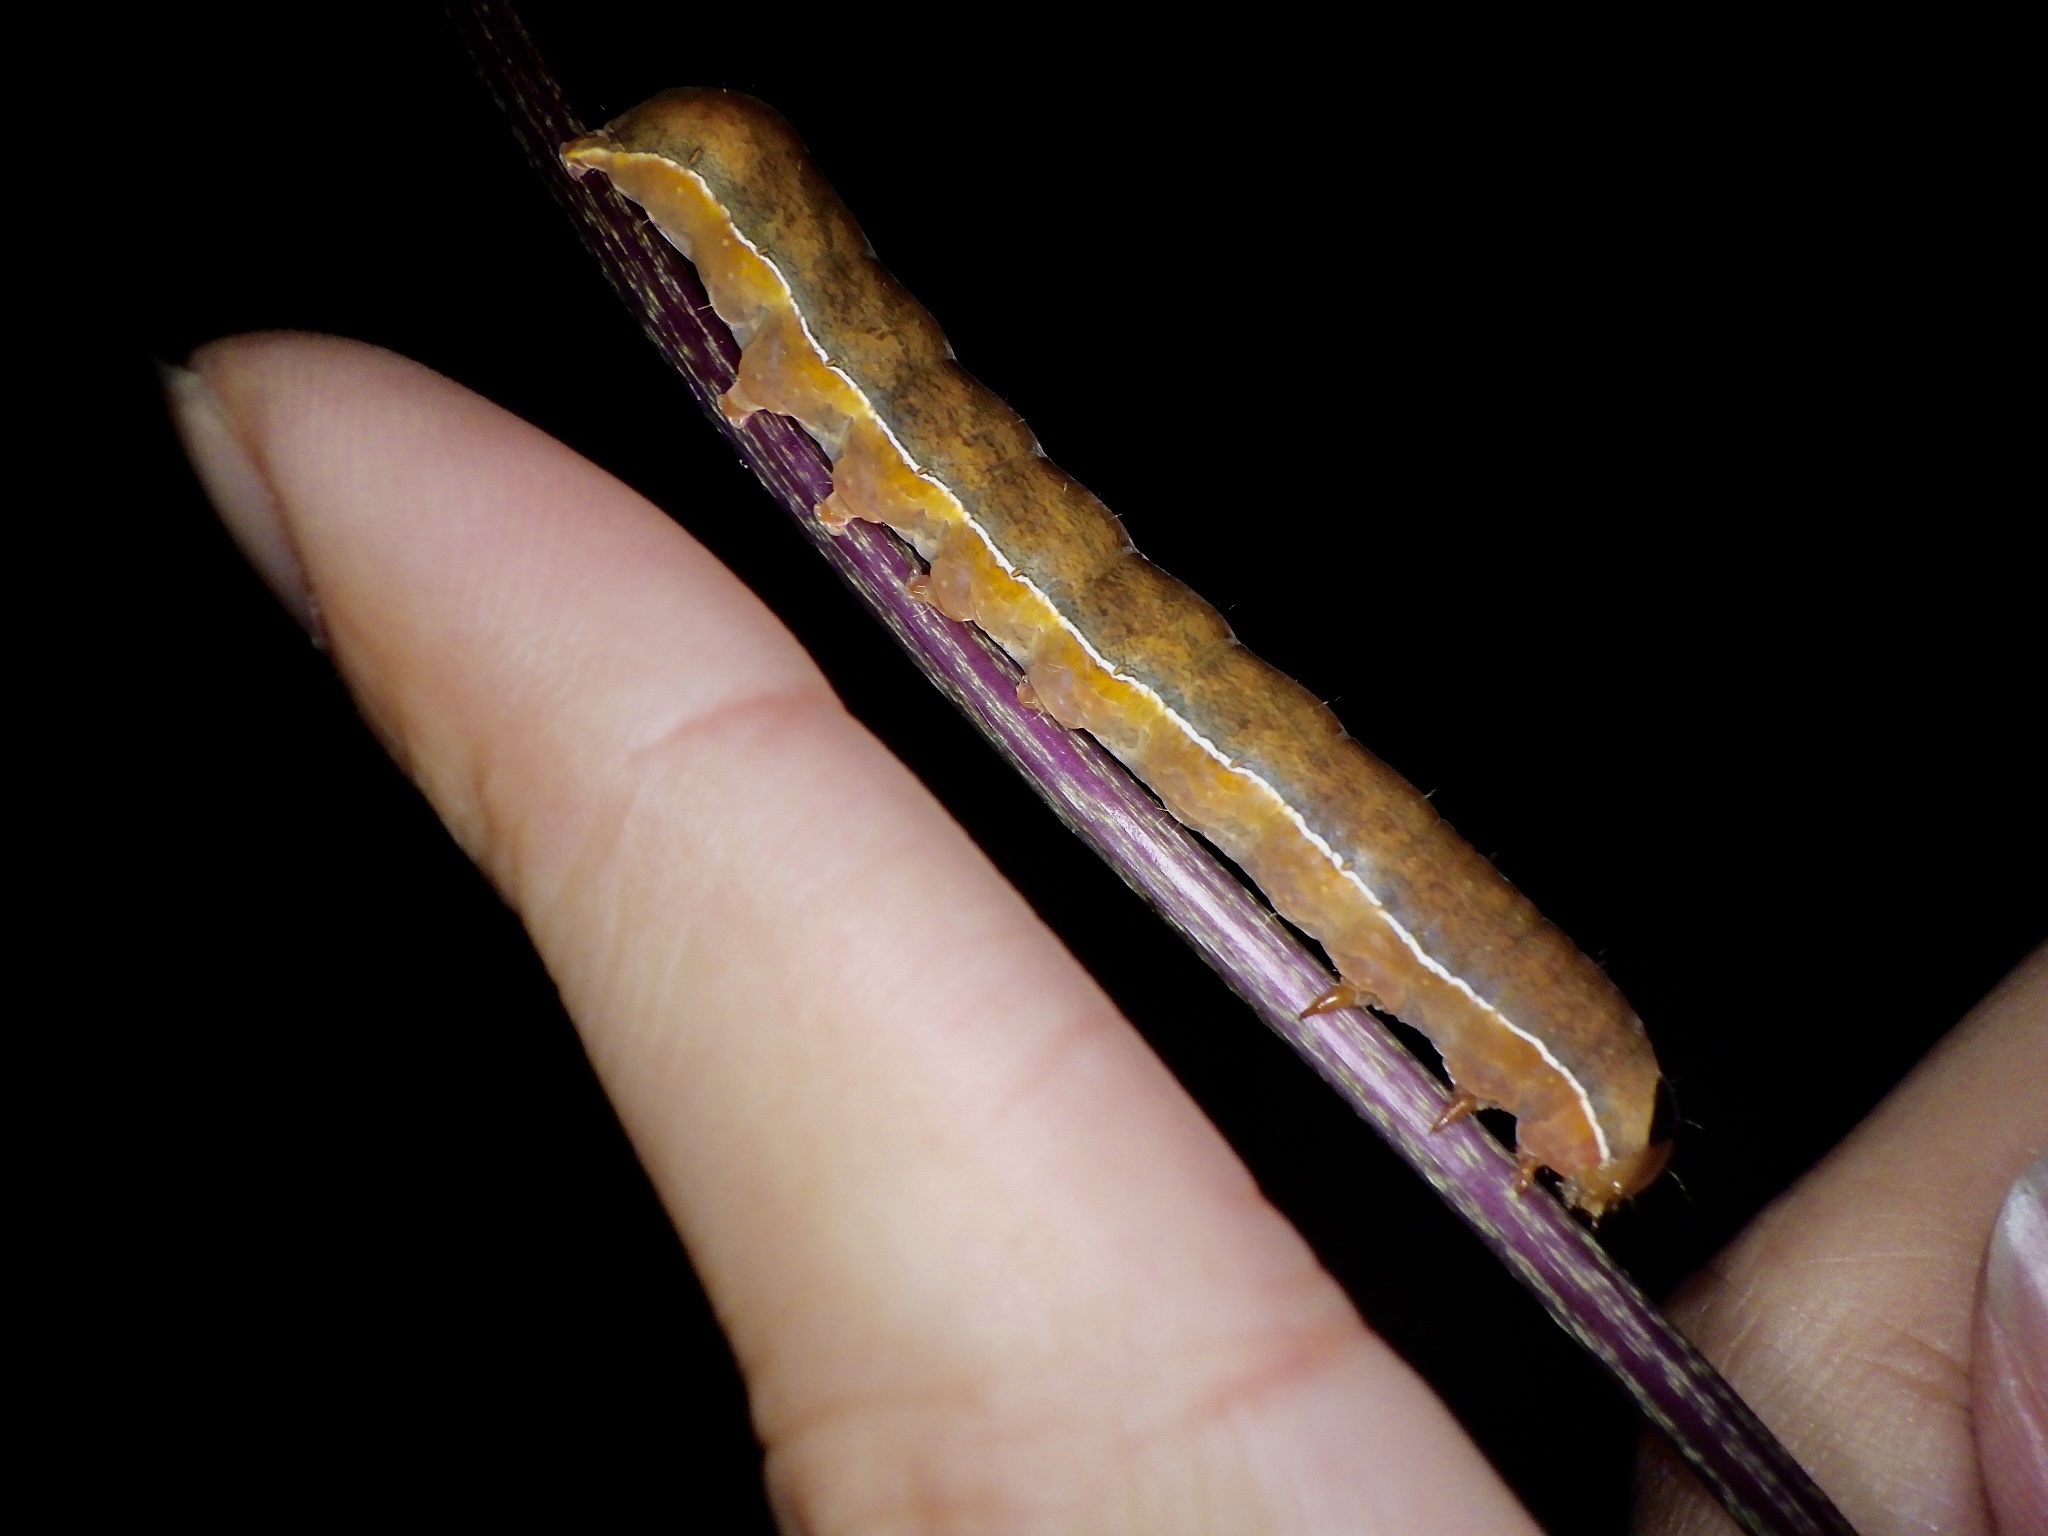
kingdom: Animalia
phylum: Arthropoda
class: Insecta
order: Lepidoptera
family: Noctuidae
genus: Xylena
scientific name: Xylena formosa
